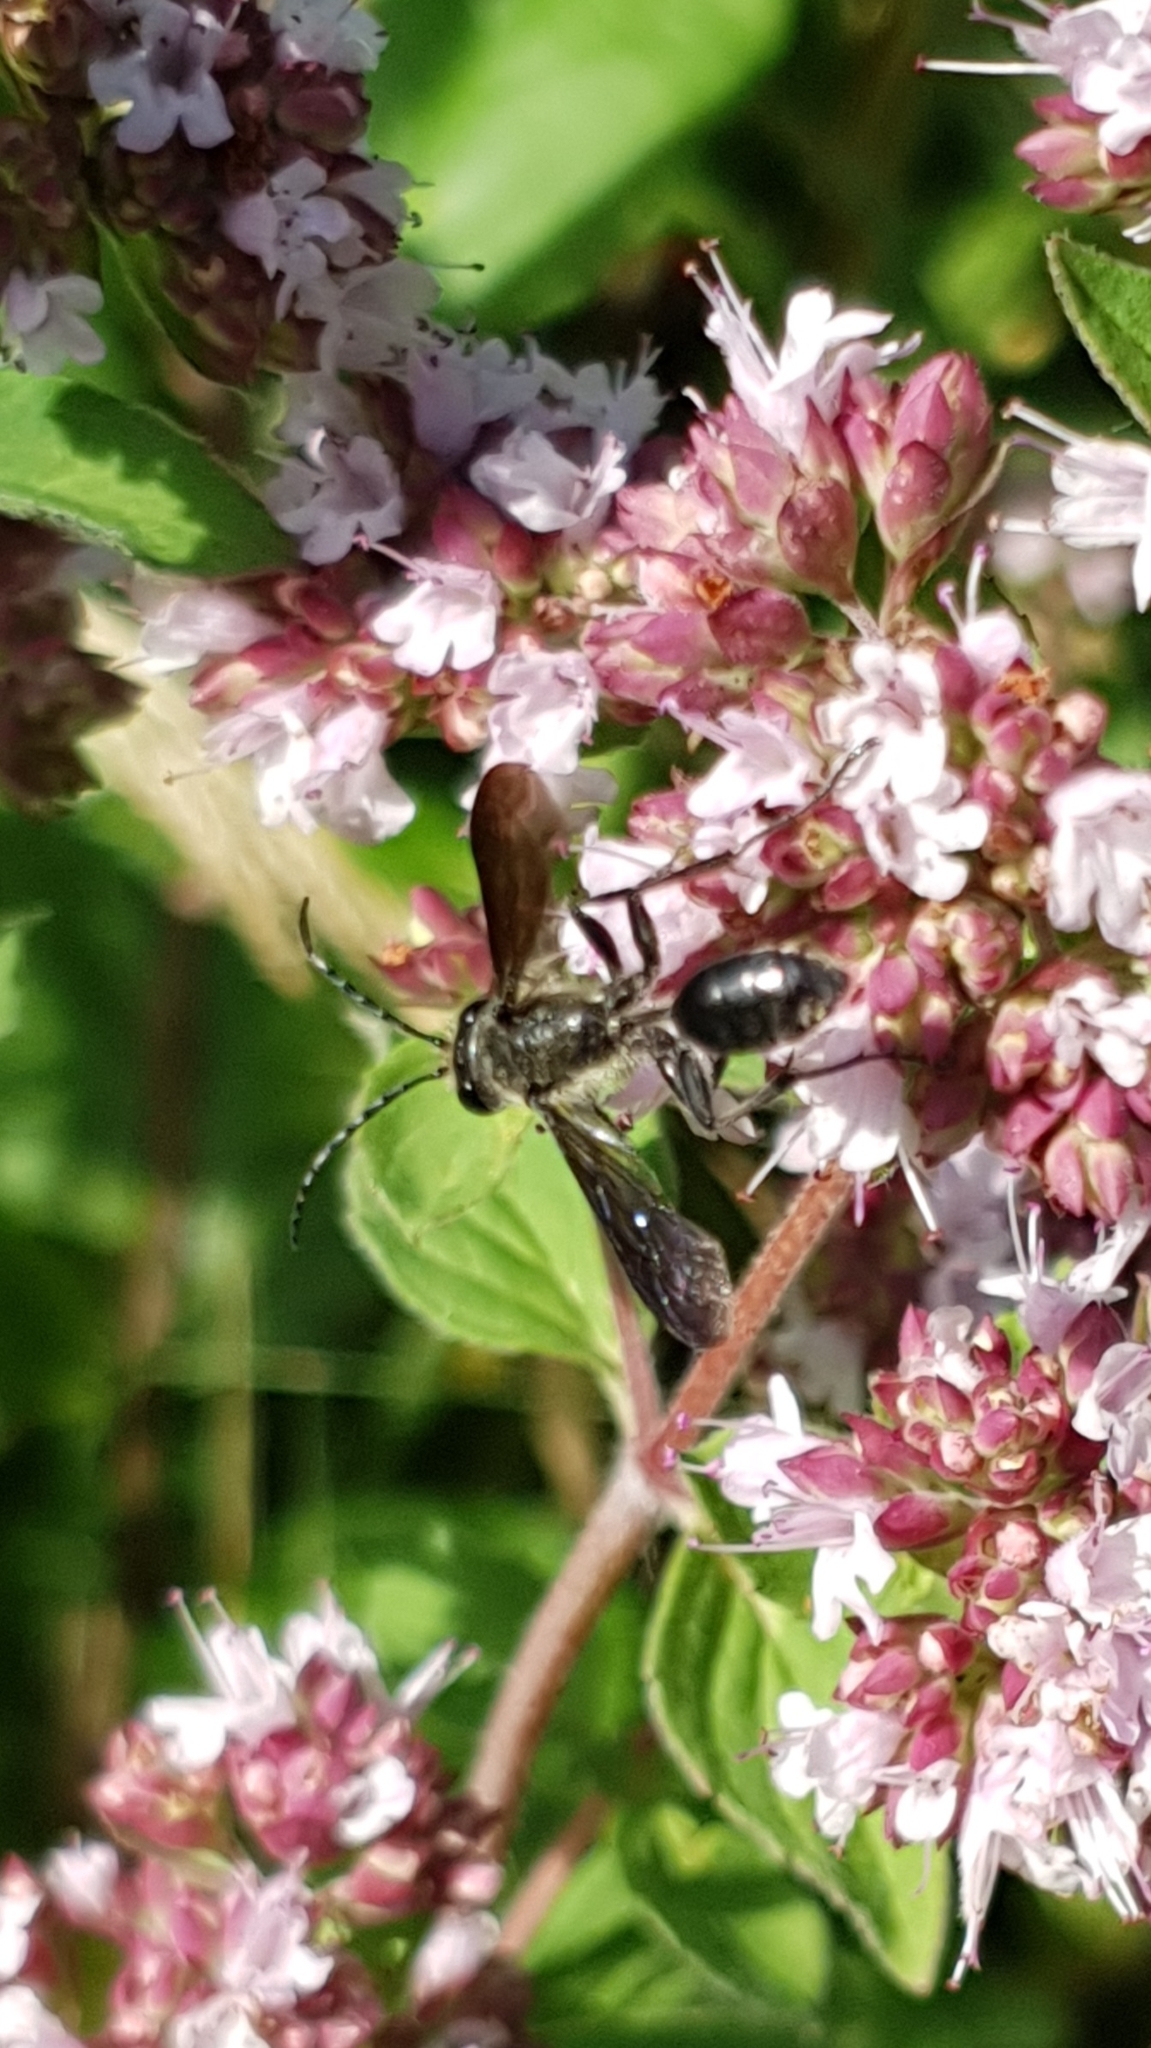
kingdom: Animalia
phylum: Arthropoda
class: Insecta
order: Hymenoptera
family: Sphecidae
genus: Isodontia
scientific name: Isodontia mexicana
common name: Mud dauber
